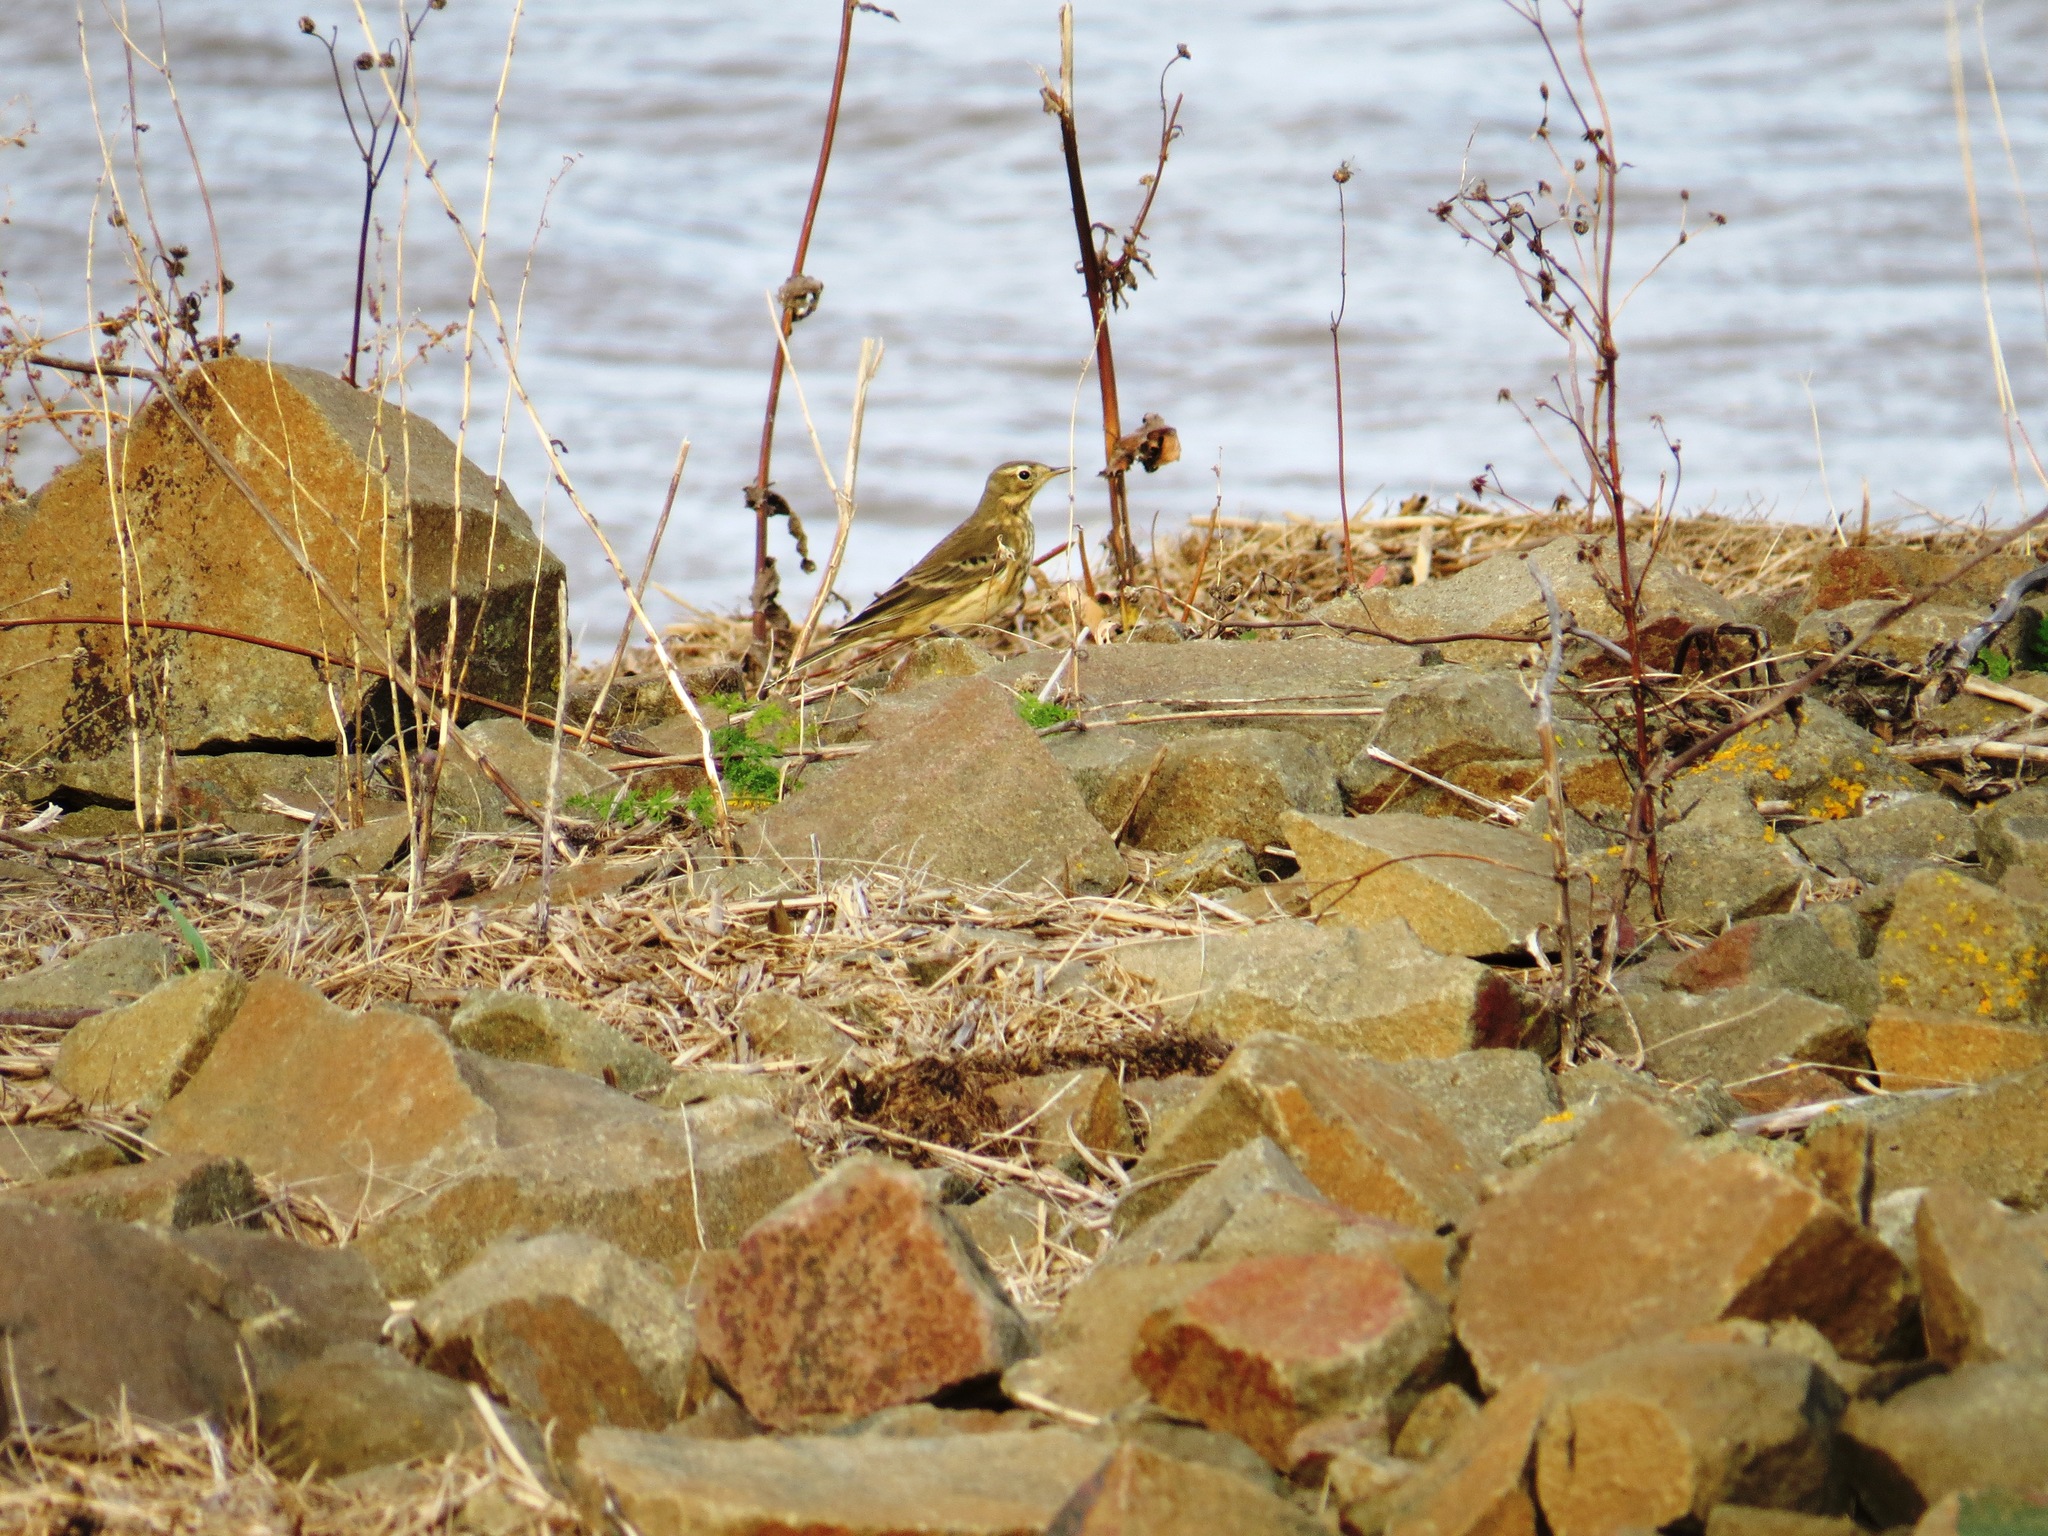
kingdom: Animalia
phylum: Chordata
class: Aves
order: Passeriformes
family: Motacillidae
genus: Anthus
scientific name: Anthus rubescens
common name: Buff-bellied pipit
